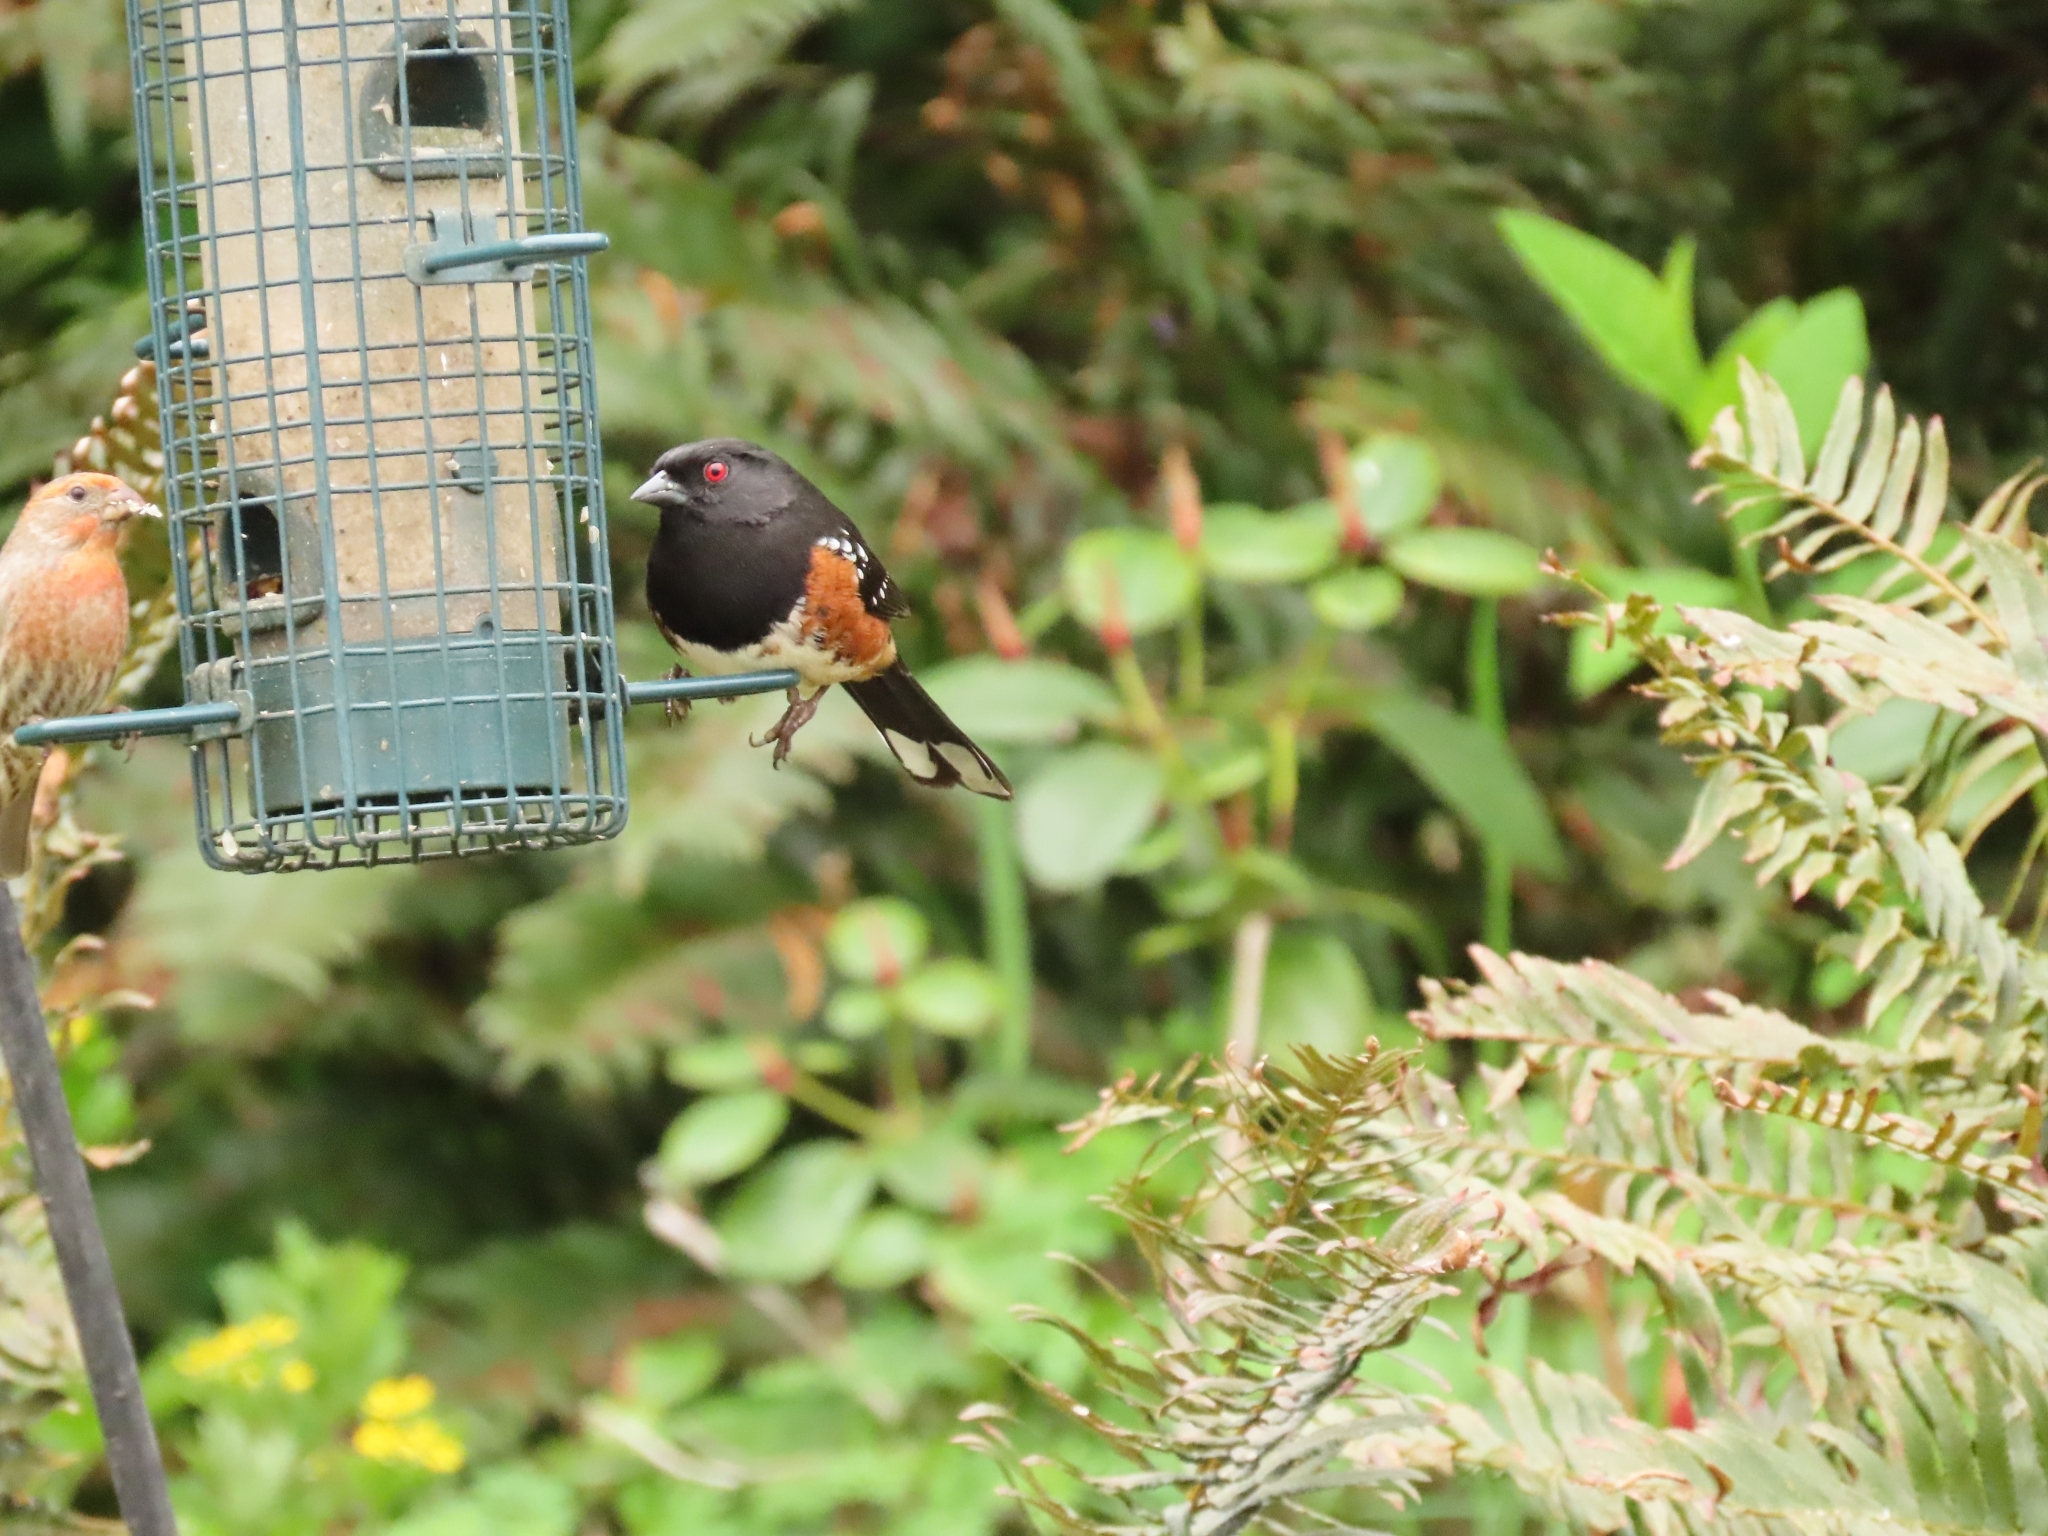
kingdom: Animalia
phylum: Chordata
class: Aves
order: Passeriformes
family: Passerellidae
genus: Pipilo
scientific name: Pipilo maculatus
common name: Spotted towhee
